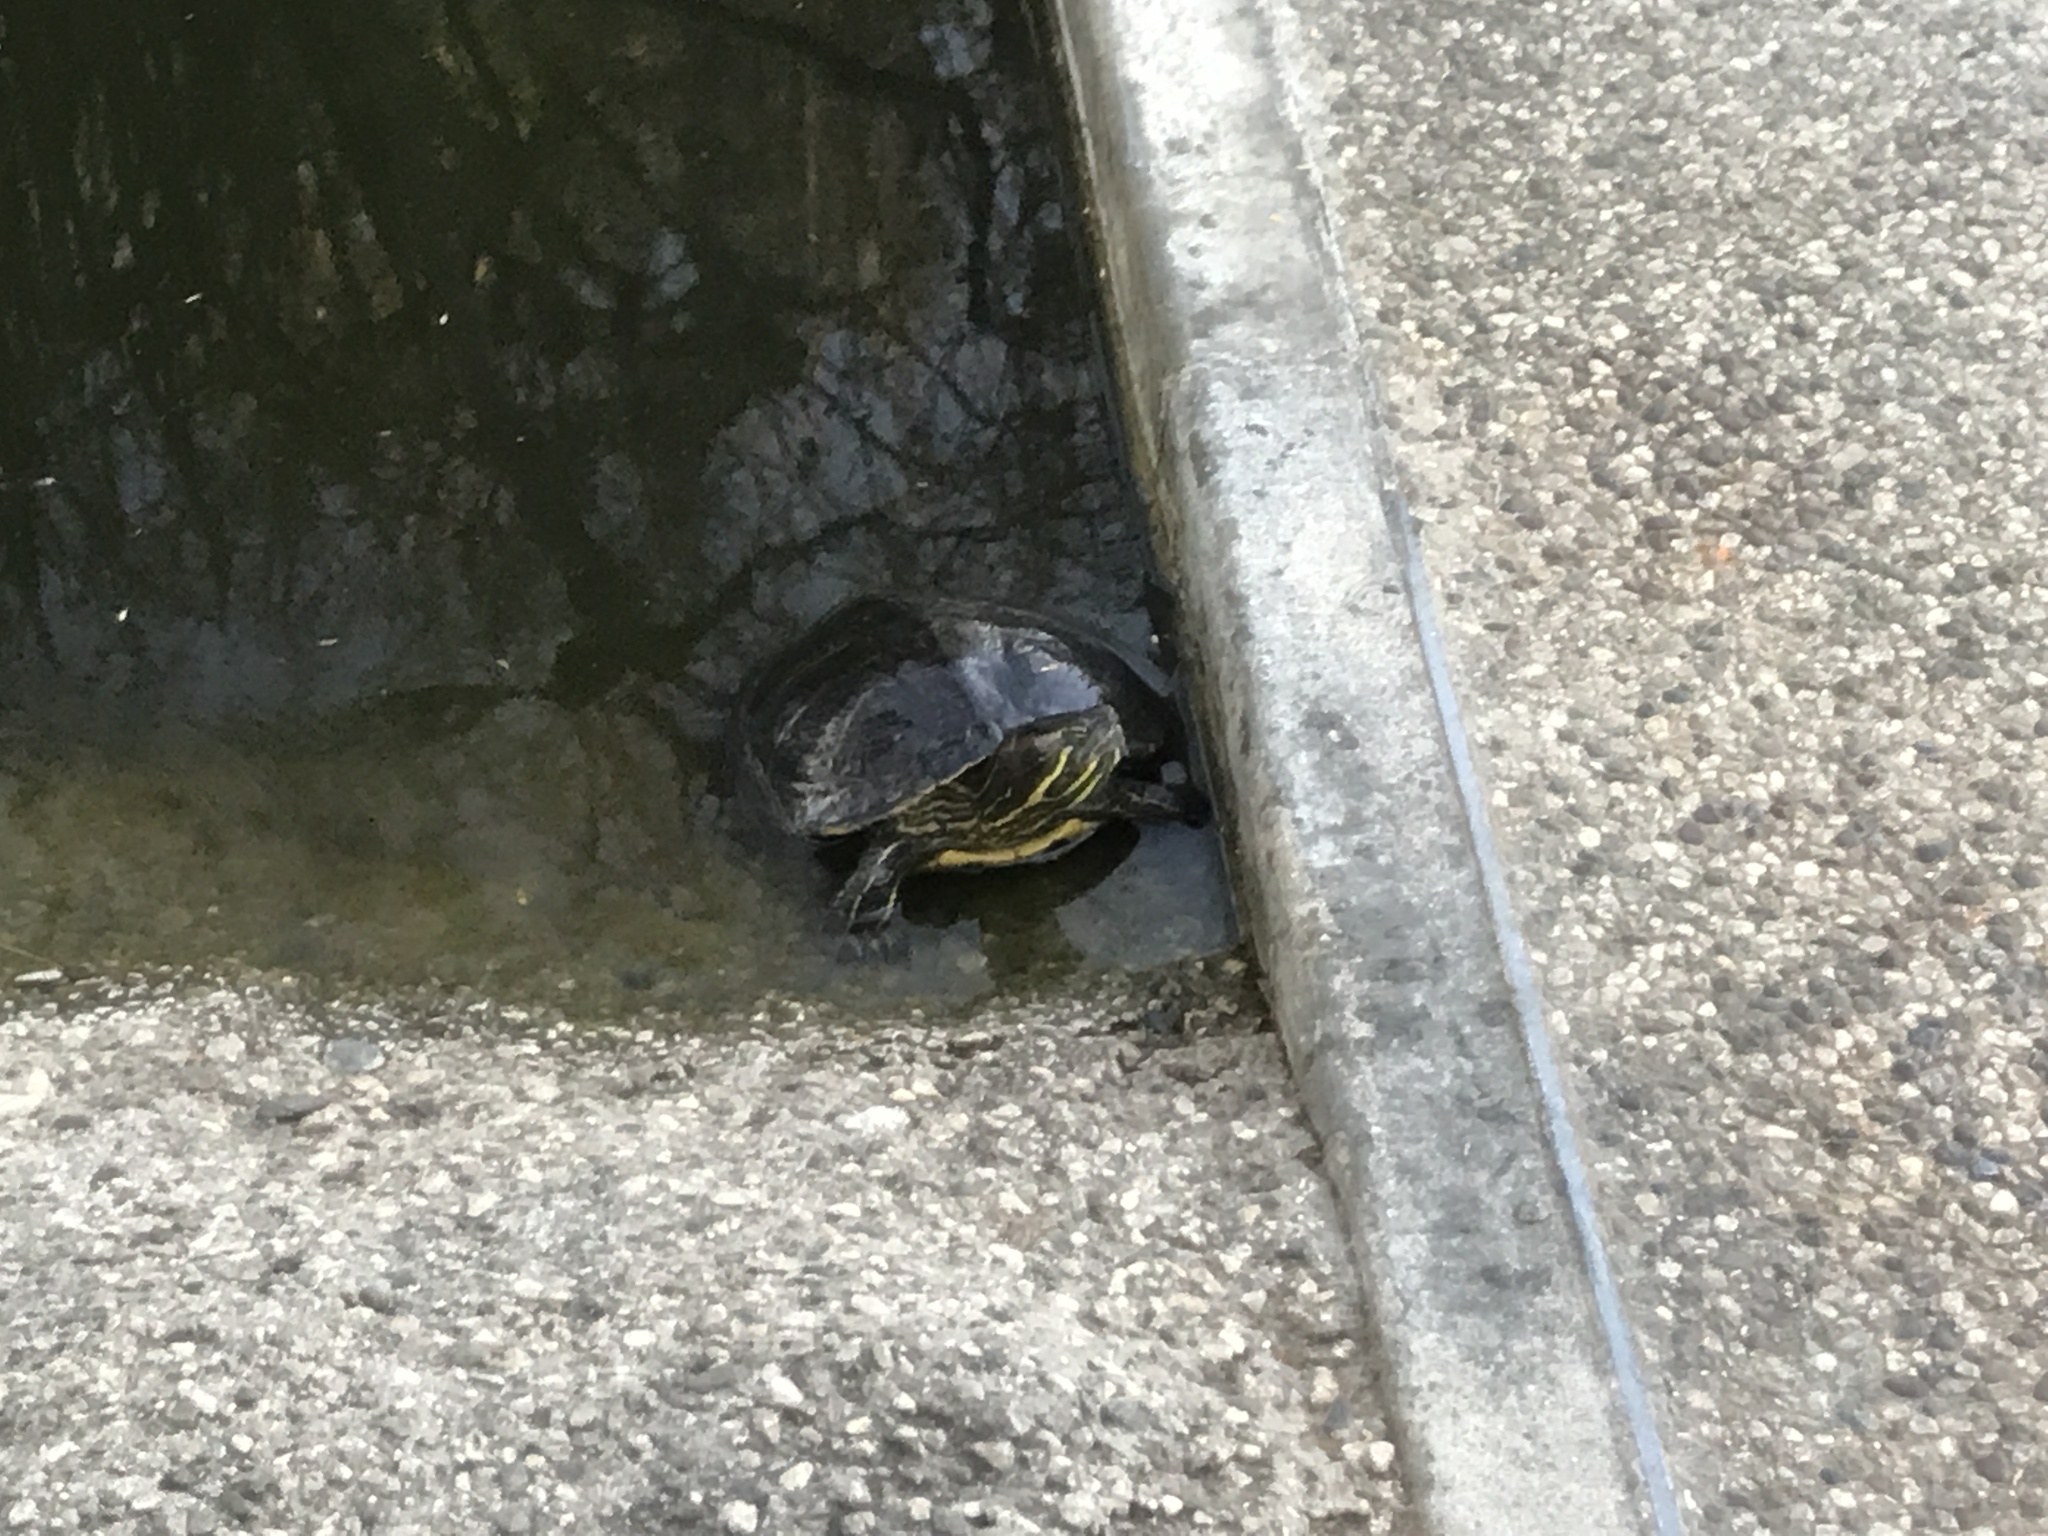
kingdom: Animalia
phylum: Chordata
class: Testudines
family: Emydidae
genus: Trachemys
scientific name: Trachemys scripta
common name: Slider
